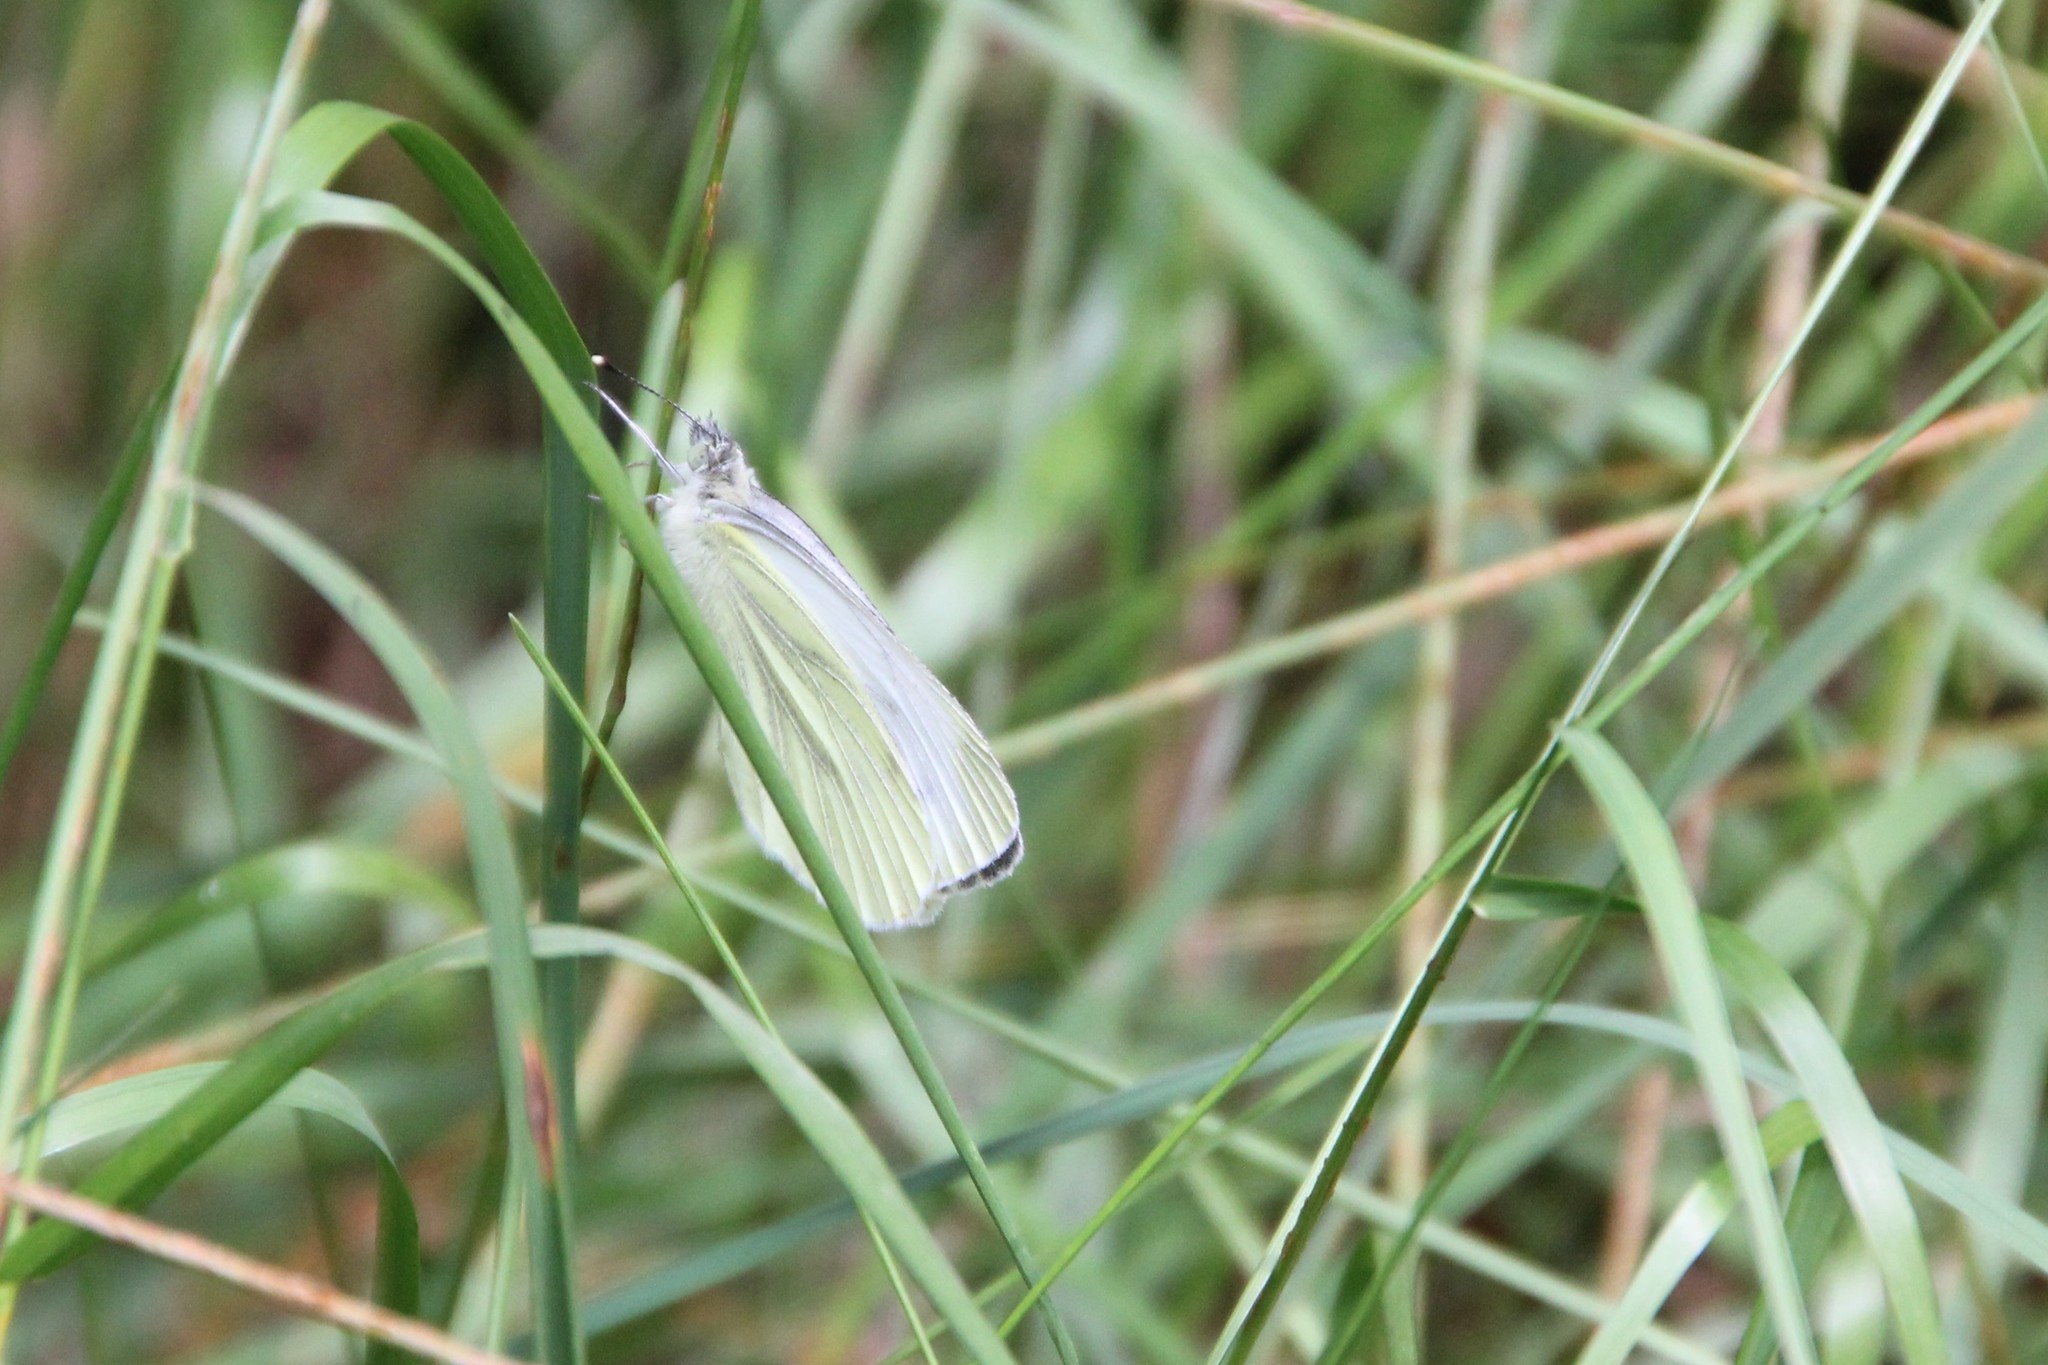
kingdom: Animalia
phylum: Arthropoda
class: Insecta
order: Lepidoptera
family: Pieridae
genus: Pieris
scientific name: Pieris napi
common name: Green-veined white
